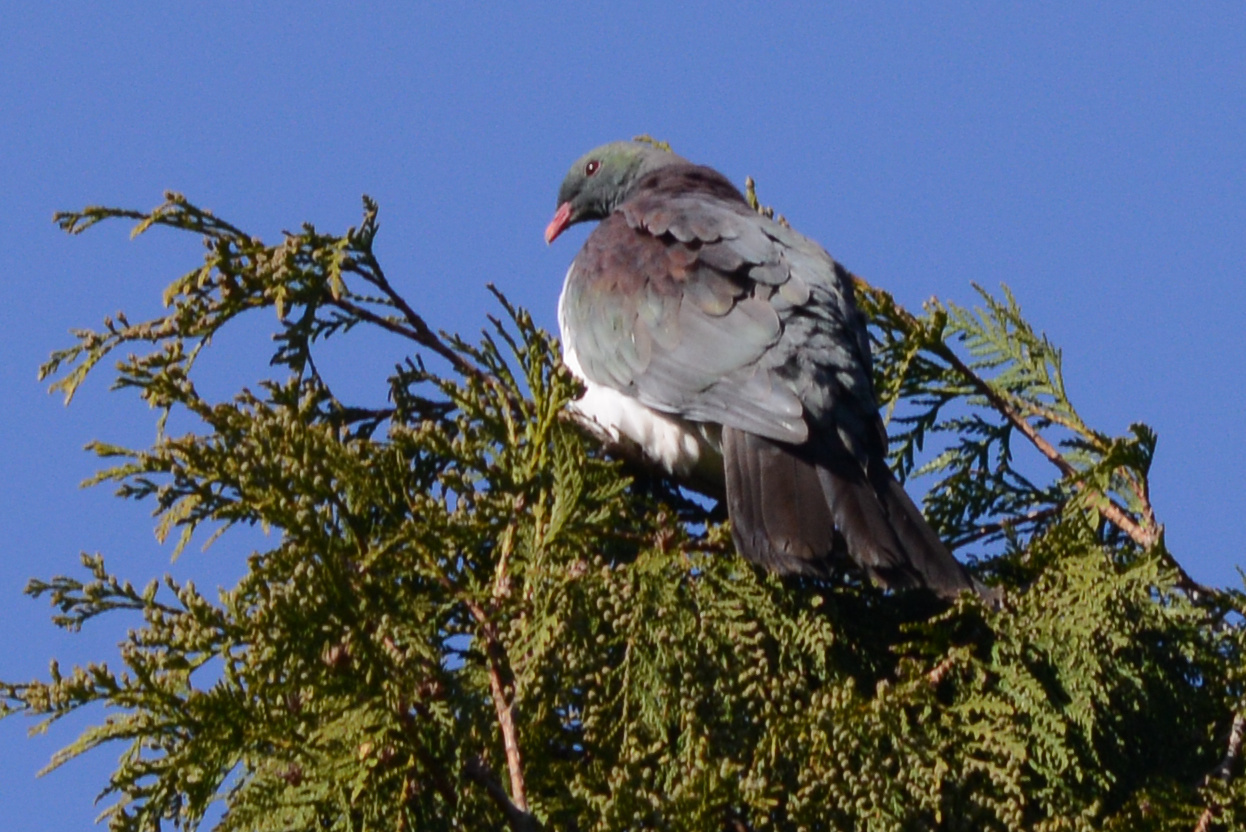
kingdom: Animalia
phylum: Chordata
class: Aves
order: Columbiformes
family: Columbidae
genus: Hemiphaga
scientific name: Hemiphaga novaeseelandiae
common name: New zealand pigeon
